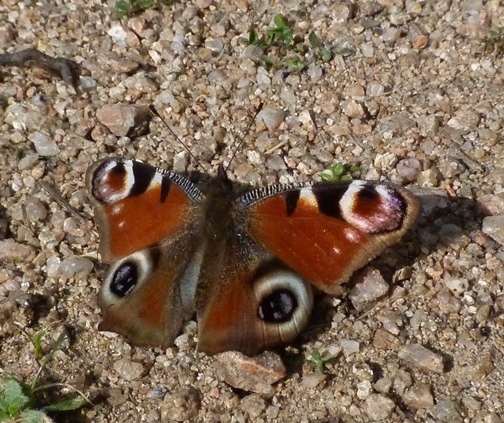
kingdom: Animalia
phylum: Arthropoda
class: Insecta
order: Lepidoptera
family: Nymphalidae
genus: Aglais
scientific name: Aglais io
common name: Peacock
